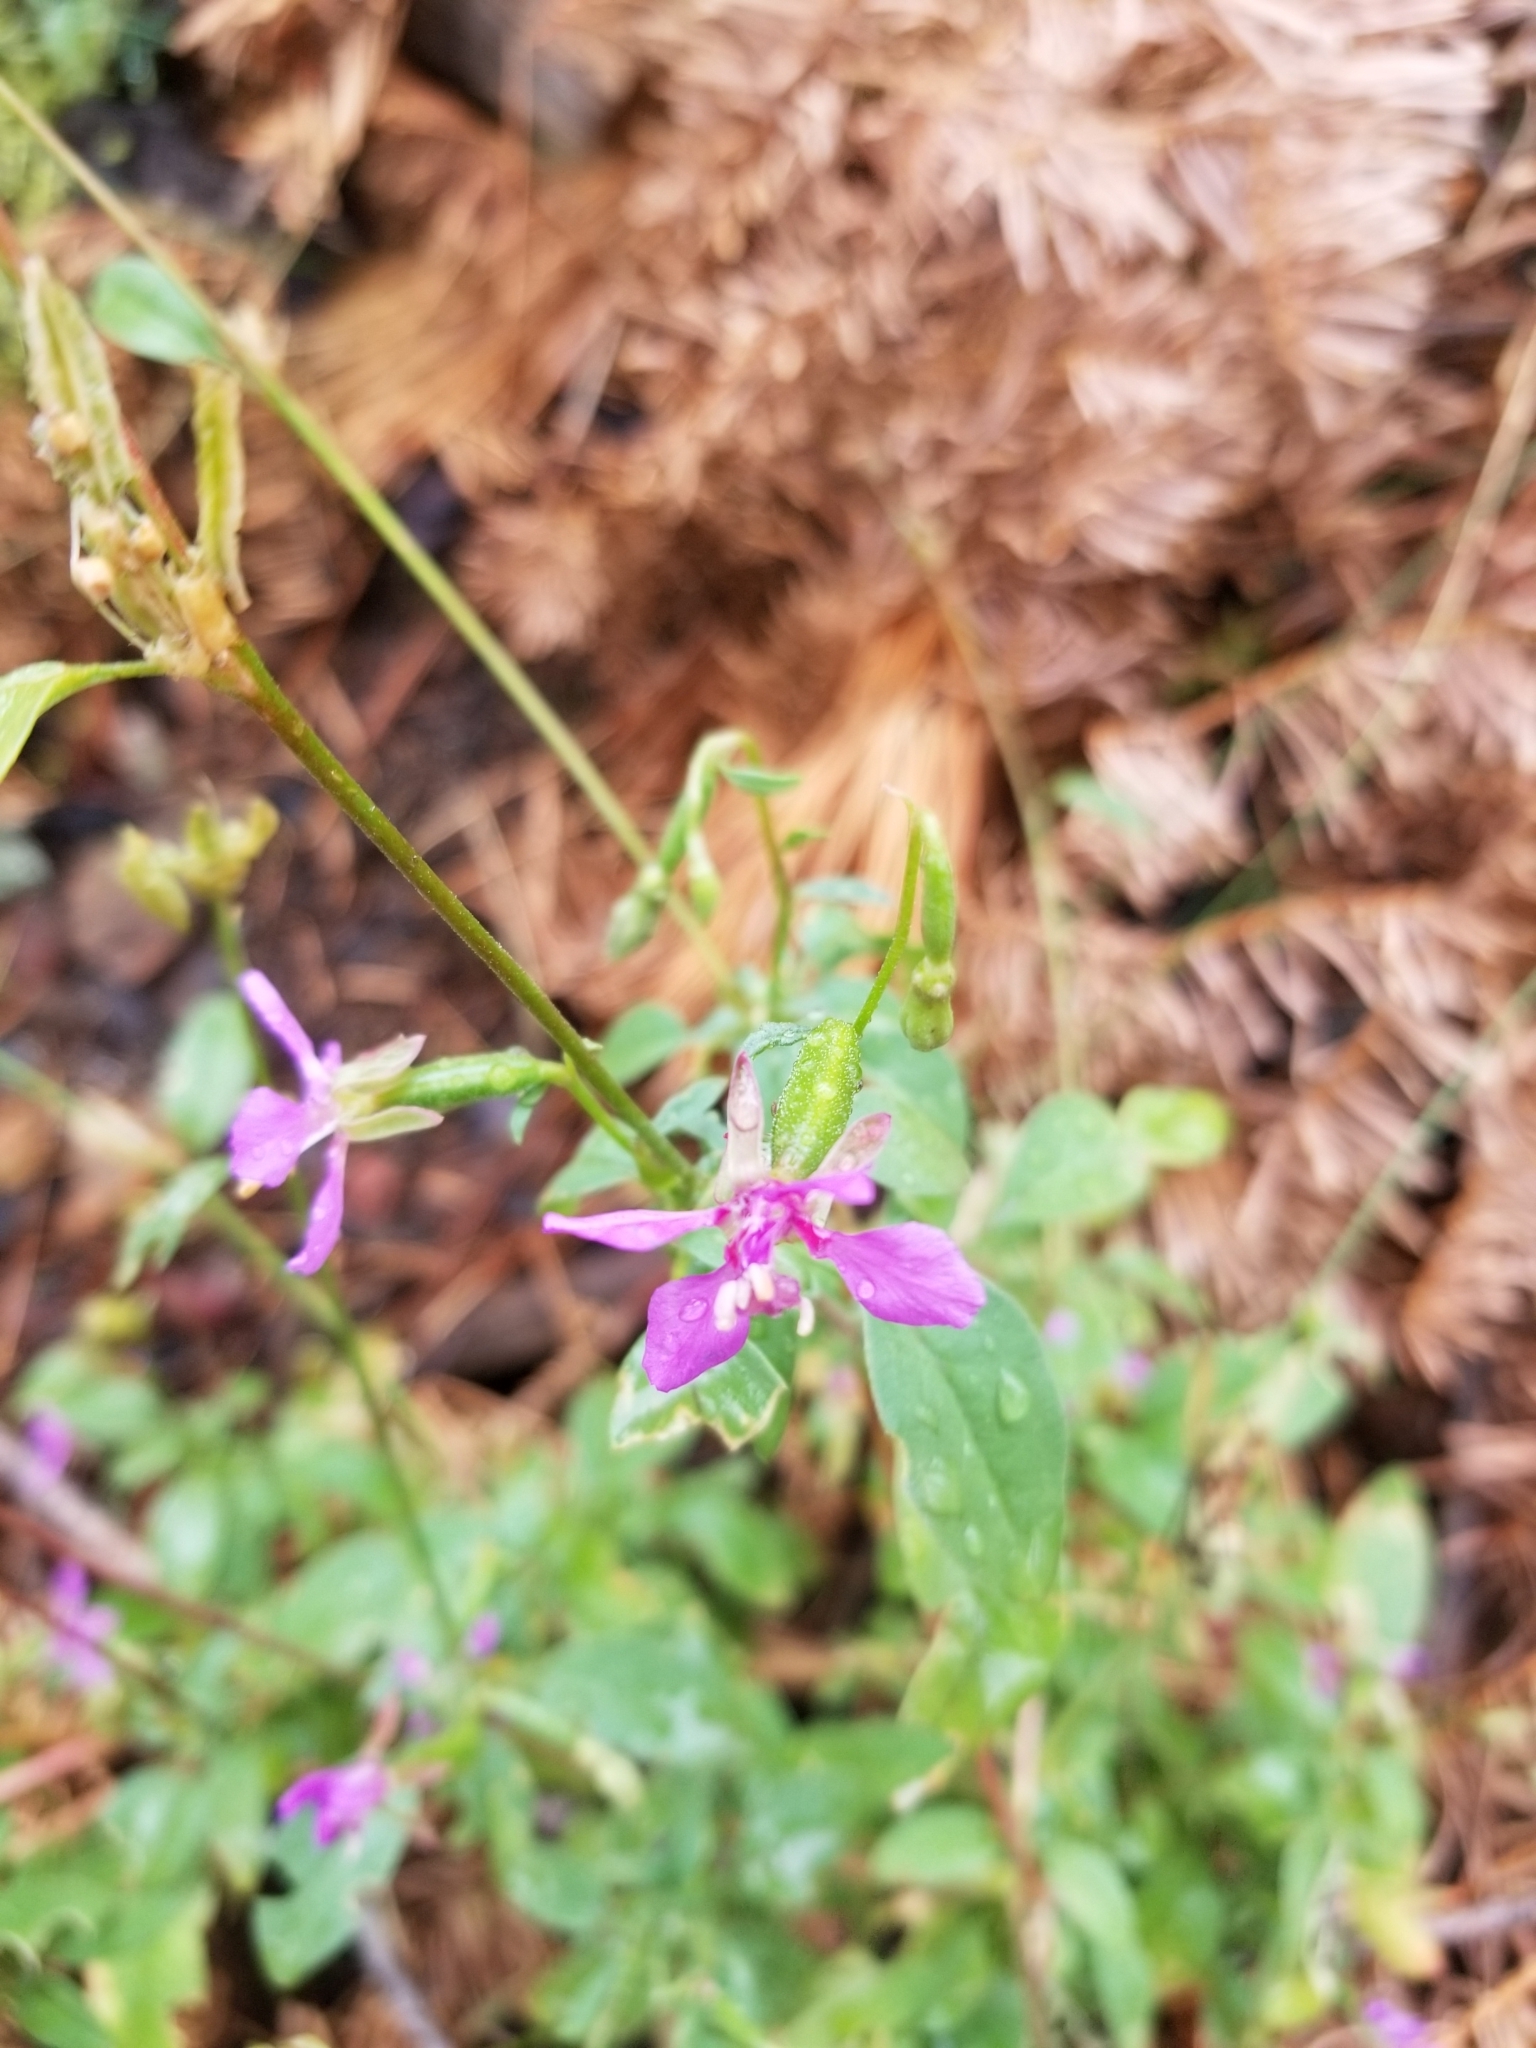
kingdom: Plantae
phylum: Tracheophyta
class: Magnoliopsida
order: Myrtales
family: Onagraceae
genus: Clarkia
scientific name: Clarkia rhomboidea
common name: Broadleaf clarkia
